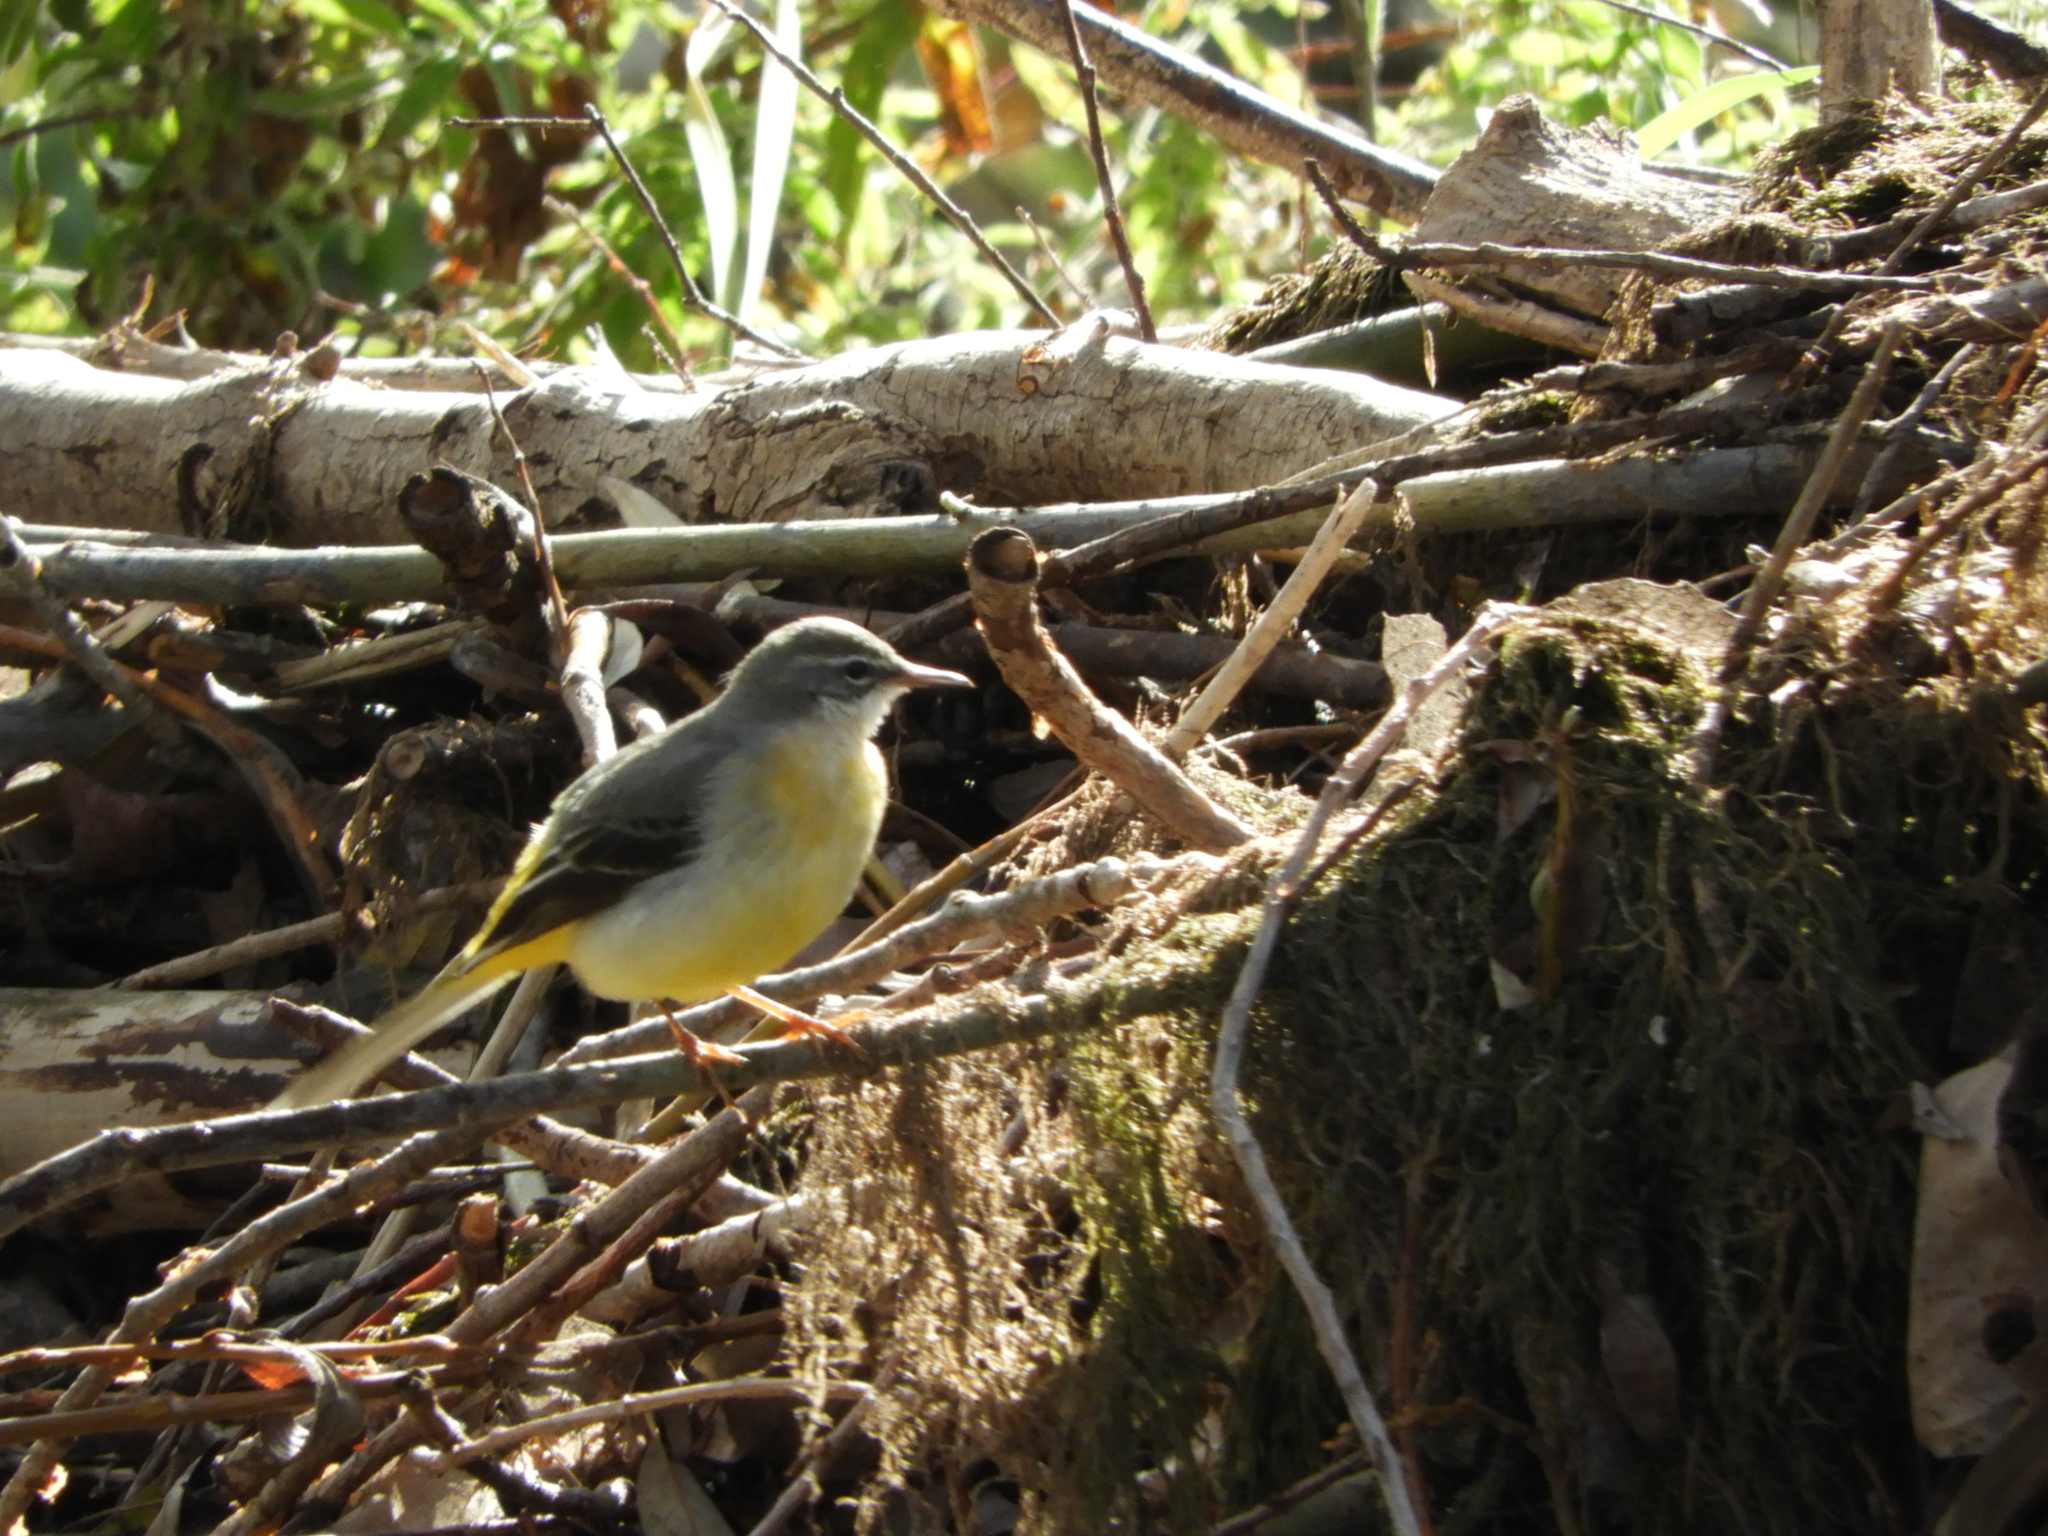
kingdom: Animalia
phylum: Chordata
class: Aves
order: Passeriformes
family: Motacillidae
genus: Motacilla
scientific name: Motacilla cinerea
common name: Grey wagtail
